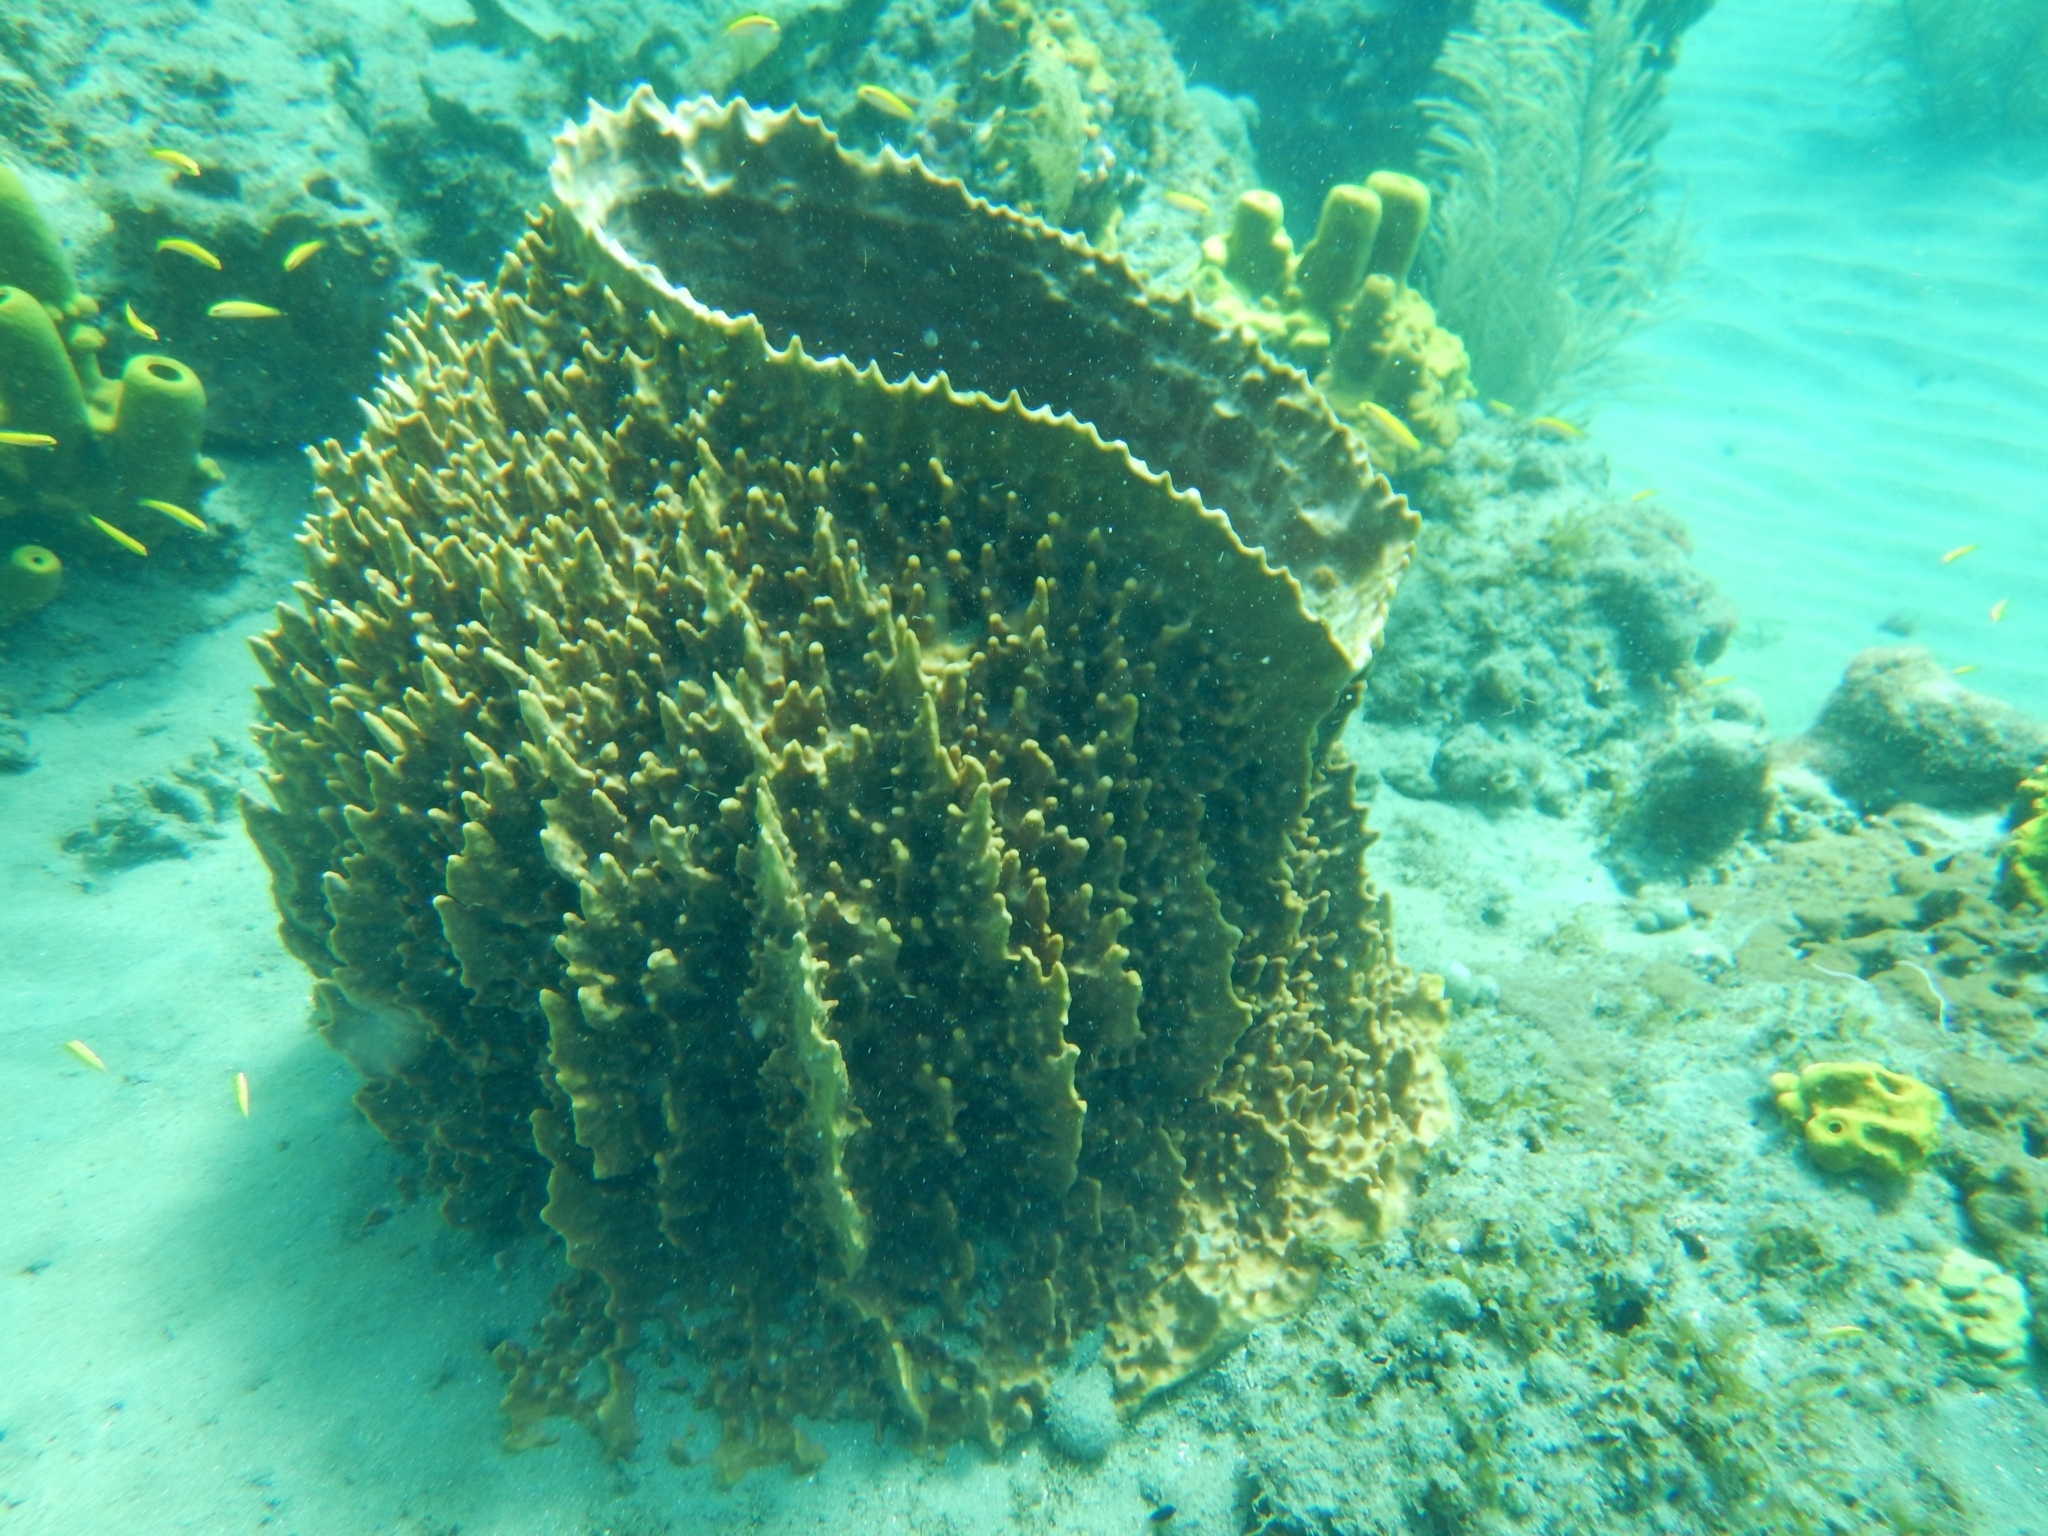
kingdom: Animalia
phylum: Porifera
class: Demospongiae
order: Haplosclerida
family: Petrosiidae
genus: Xestospongia
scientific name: Xestospongia muta
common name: Giant barrel sponge
